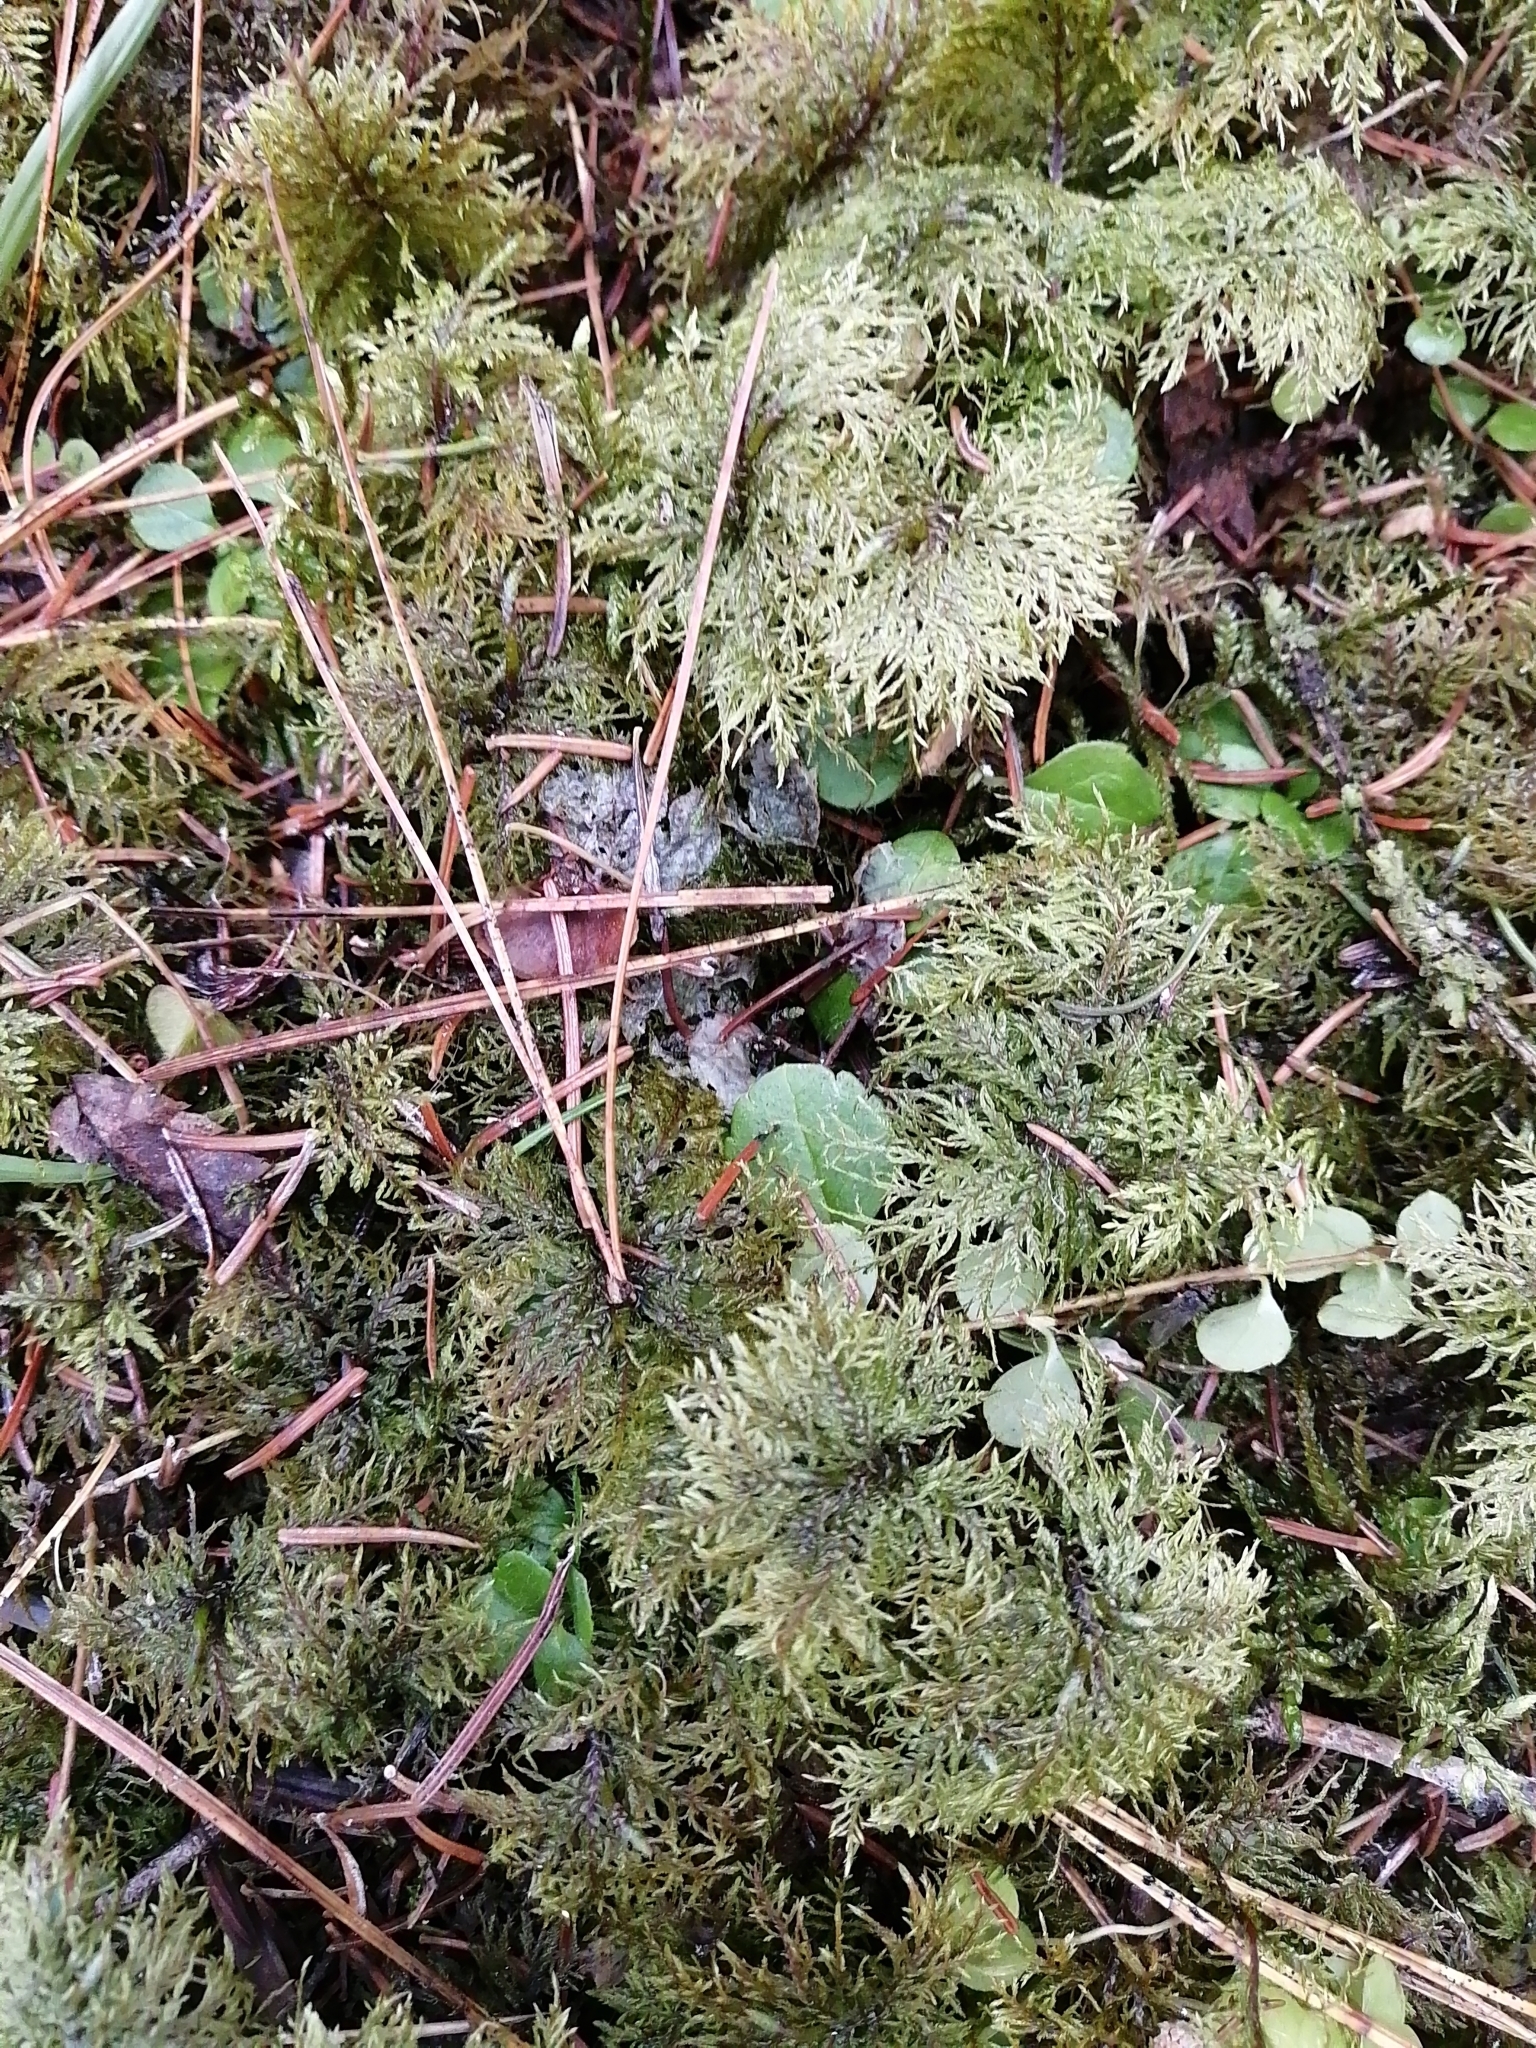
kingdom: Plantae
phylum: Bryophyta
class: Bryopsida
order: Hypnales
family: Hylocomiaceae
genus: Hylocomium
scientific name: Hylocomium splendens
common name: Stairstep moss
